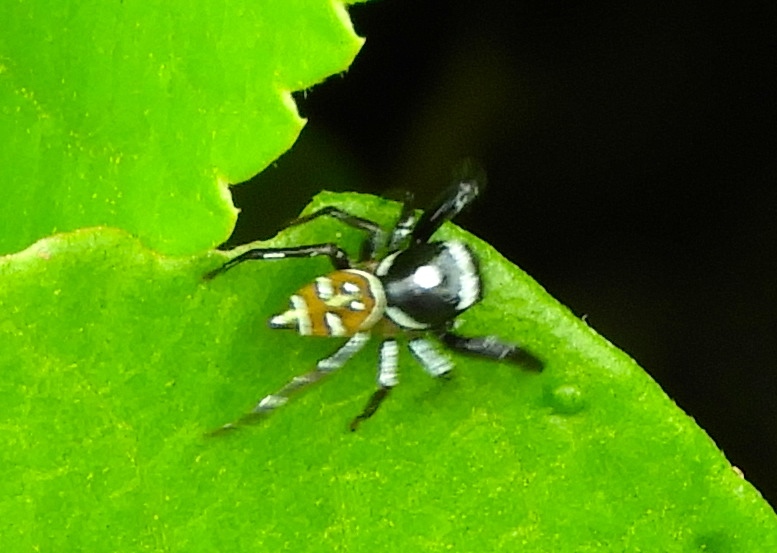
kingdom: Animalia
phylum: Arthropoda
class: Arachnida
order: Araneae
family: Salticidae
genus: Sassacus
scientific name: Sassacus
